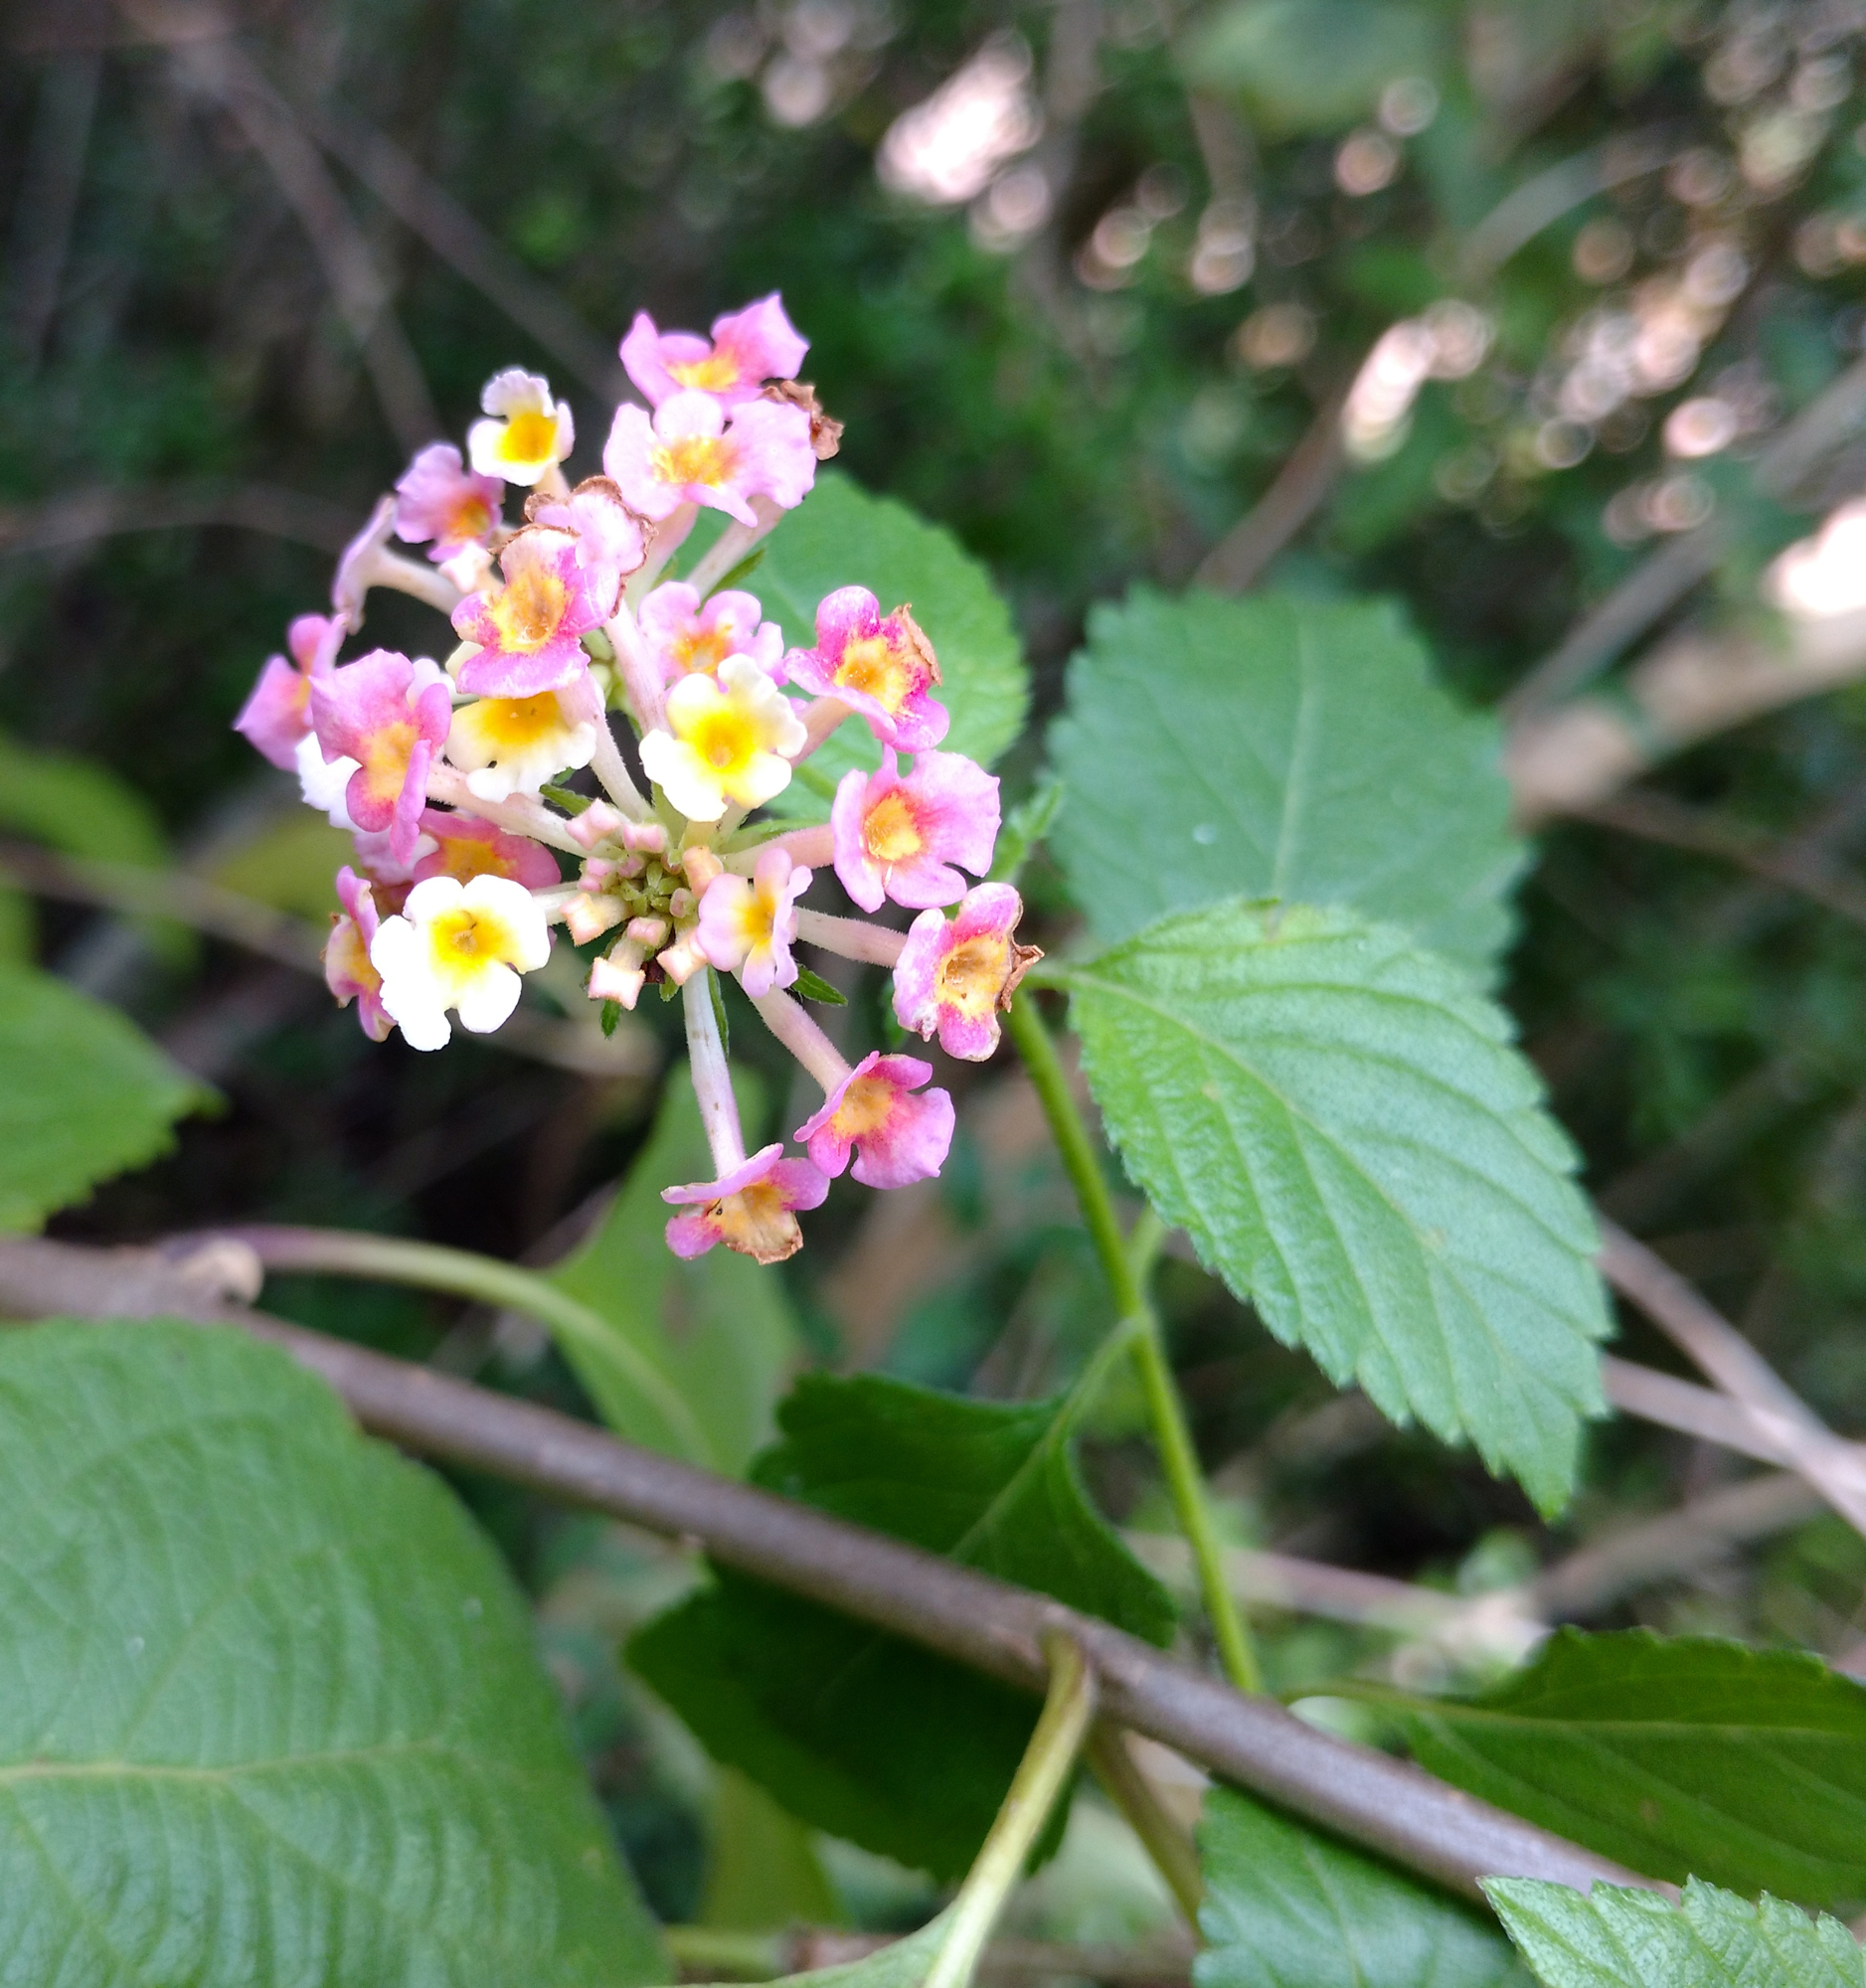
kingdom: Plantae
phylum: Tracheophyta
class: Magnoliopsida
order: Lamiales
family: Verbenaceae
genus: Lantana
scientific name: Lantana strigocamara
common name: Lantana
